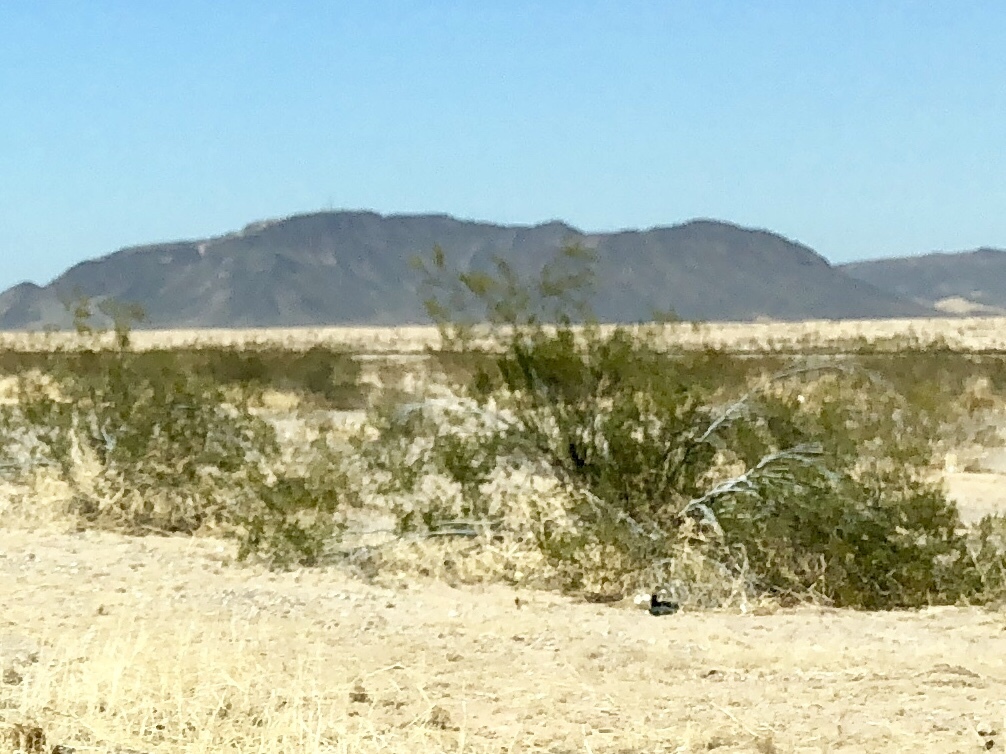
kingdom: Plantae
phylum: Tracheophyta
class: Magnoliopsida
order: Zygophyllales
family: Zygophyllaceae
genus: Larrea
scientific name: Larrea tridentata
